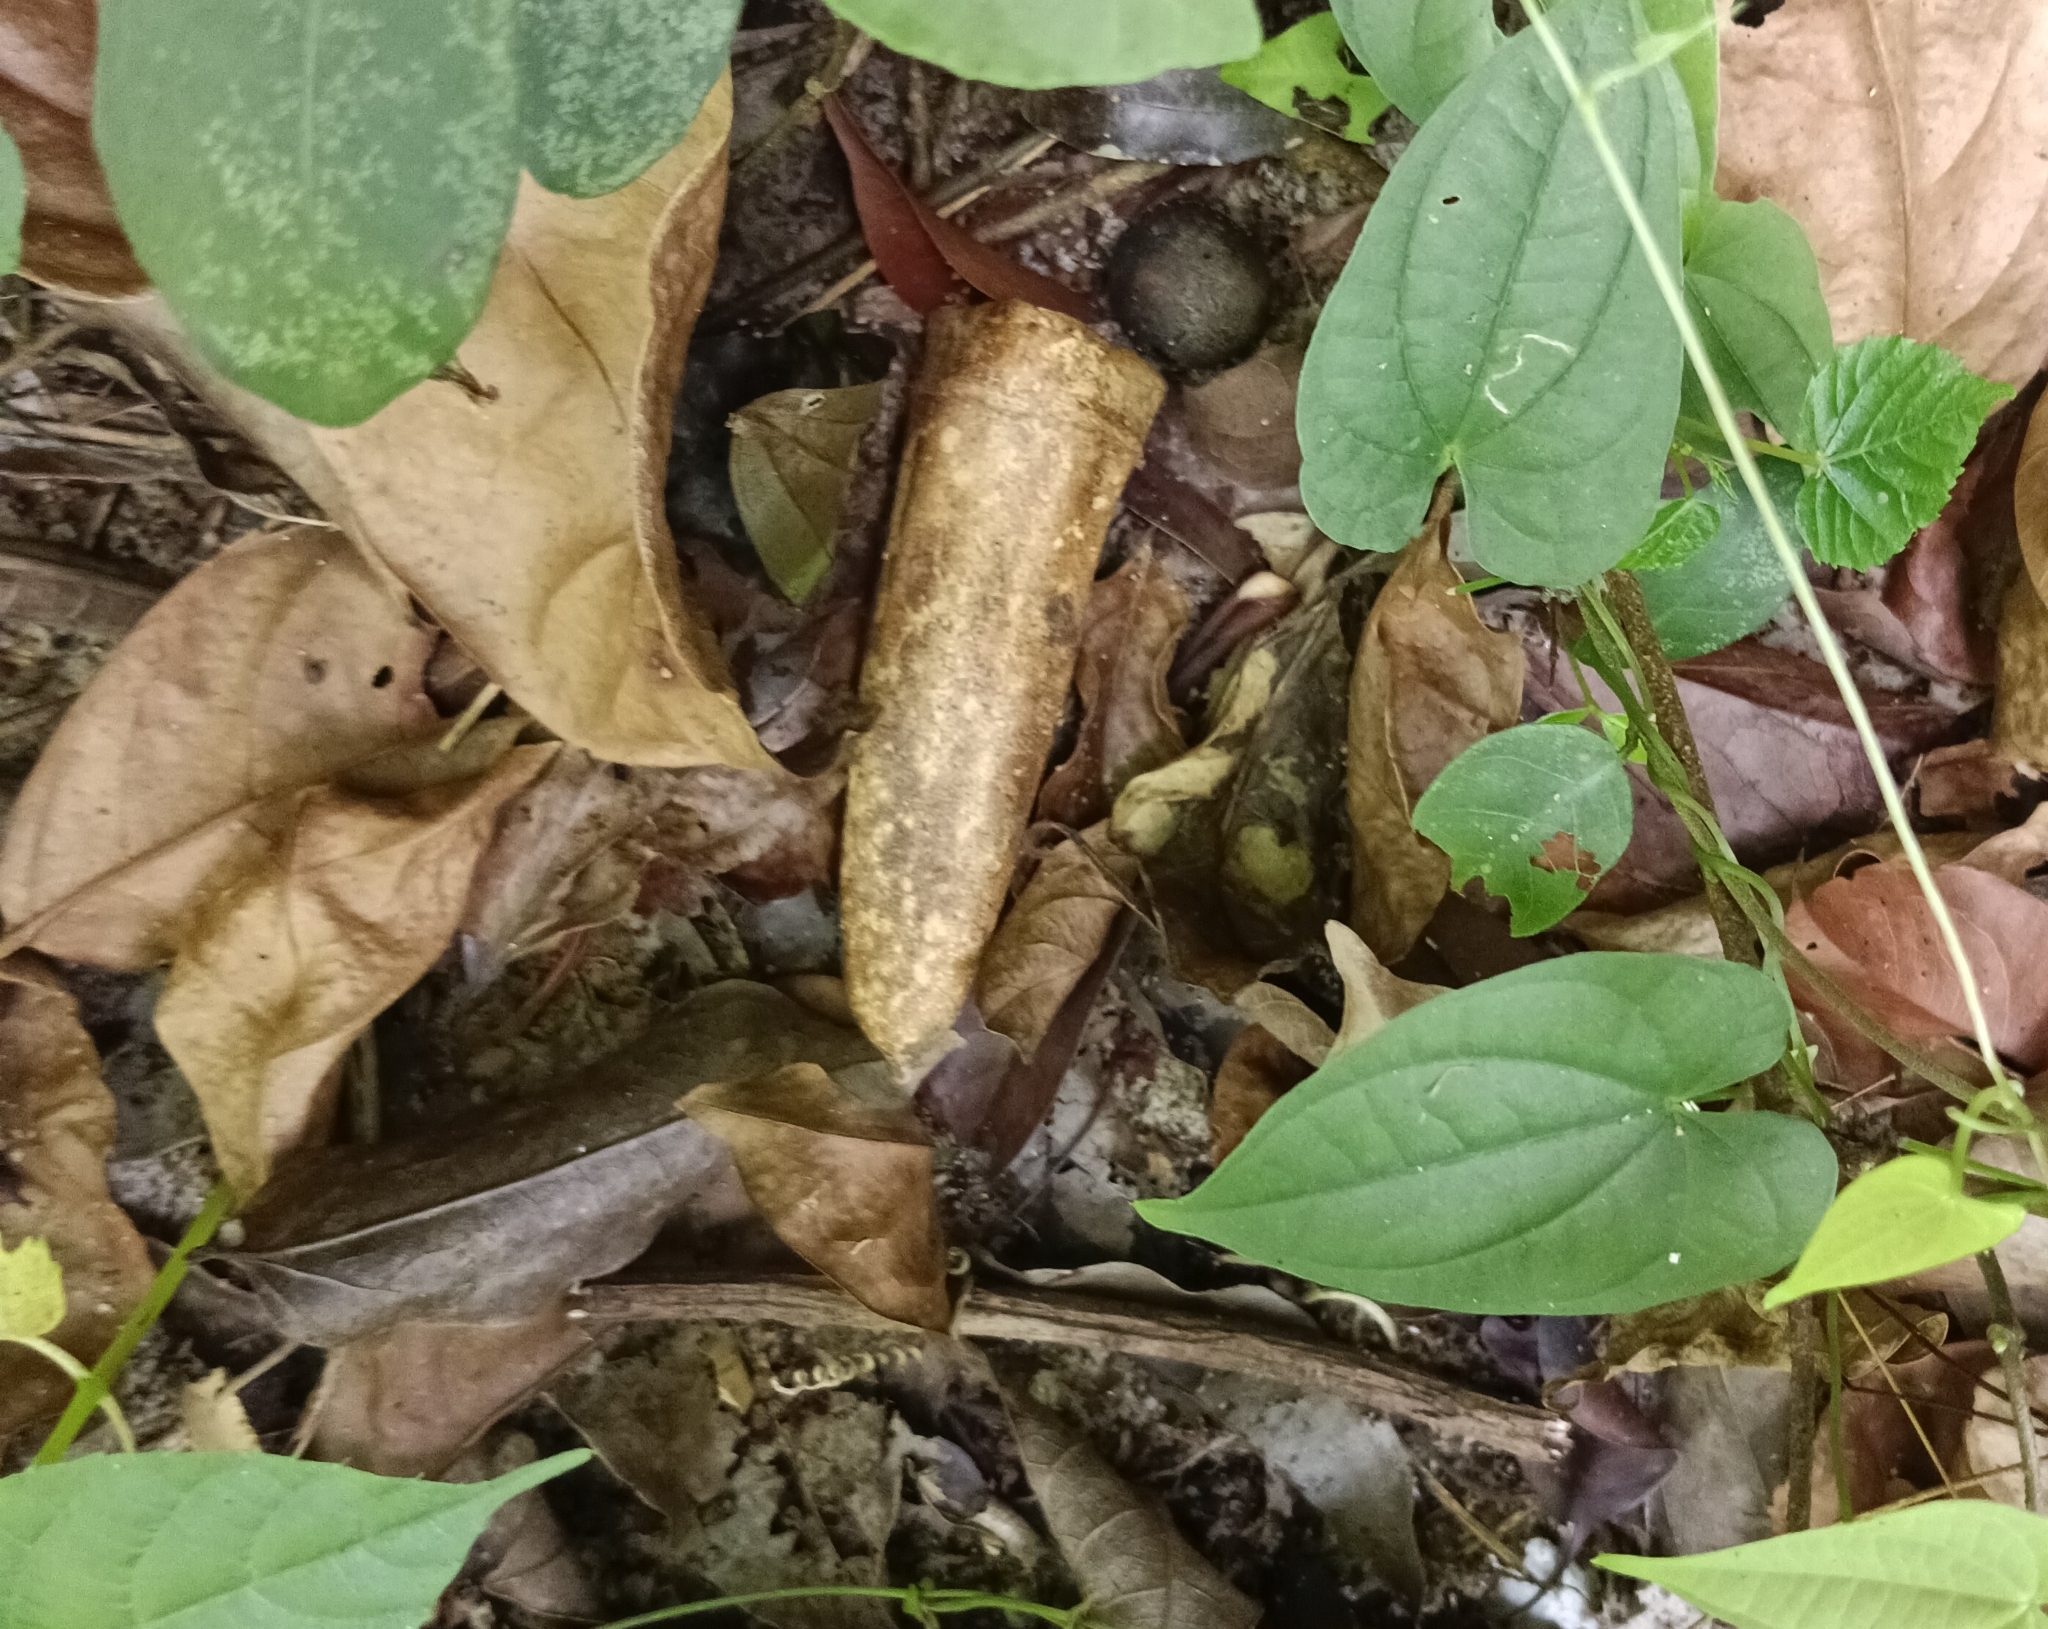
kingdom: Plantae
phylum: Tracheophyta
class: Magnoliopsida
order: Cucurbitales
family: Cucurbitaceae
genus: Zanonia
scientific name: Zanonia indica
